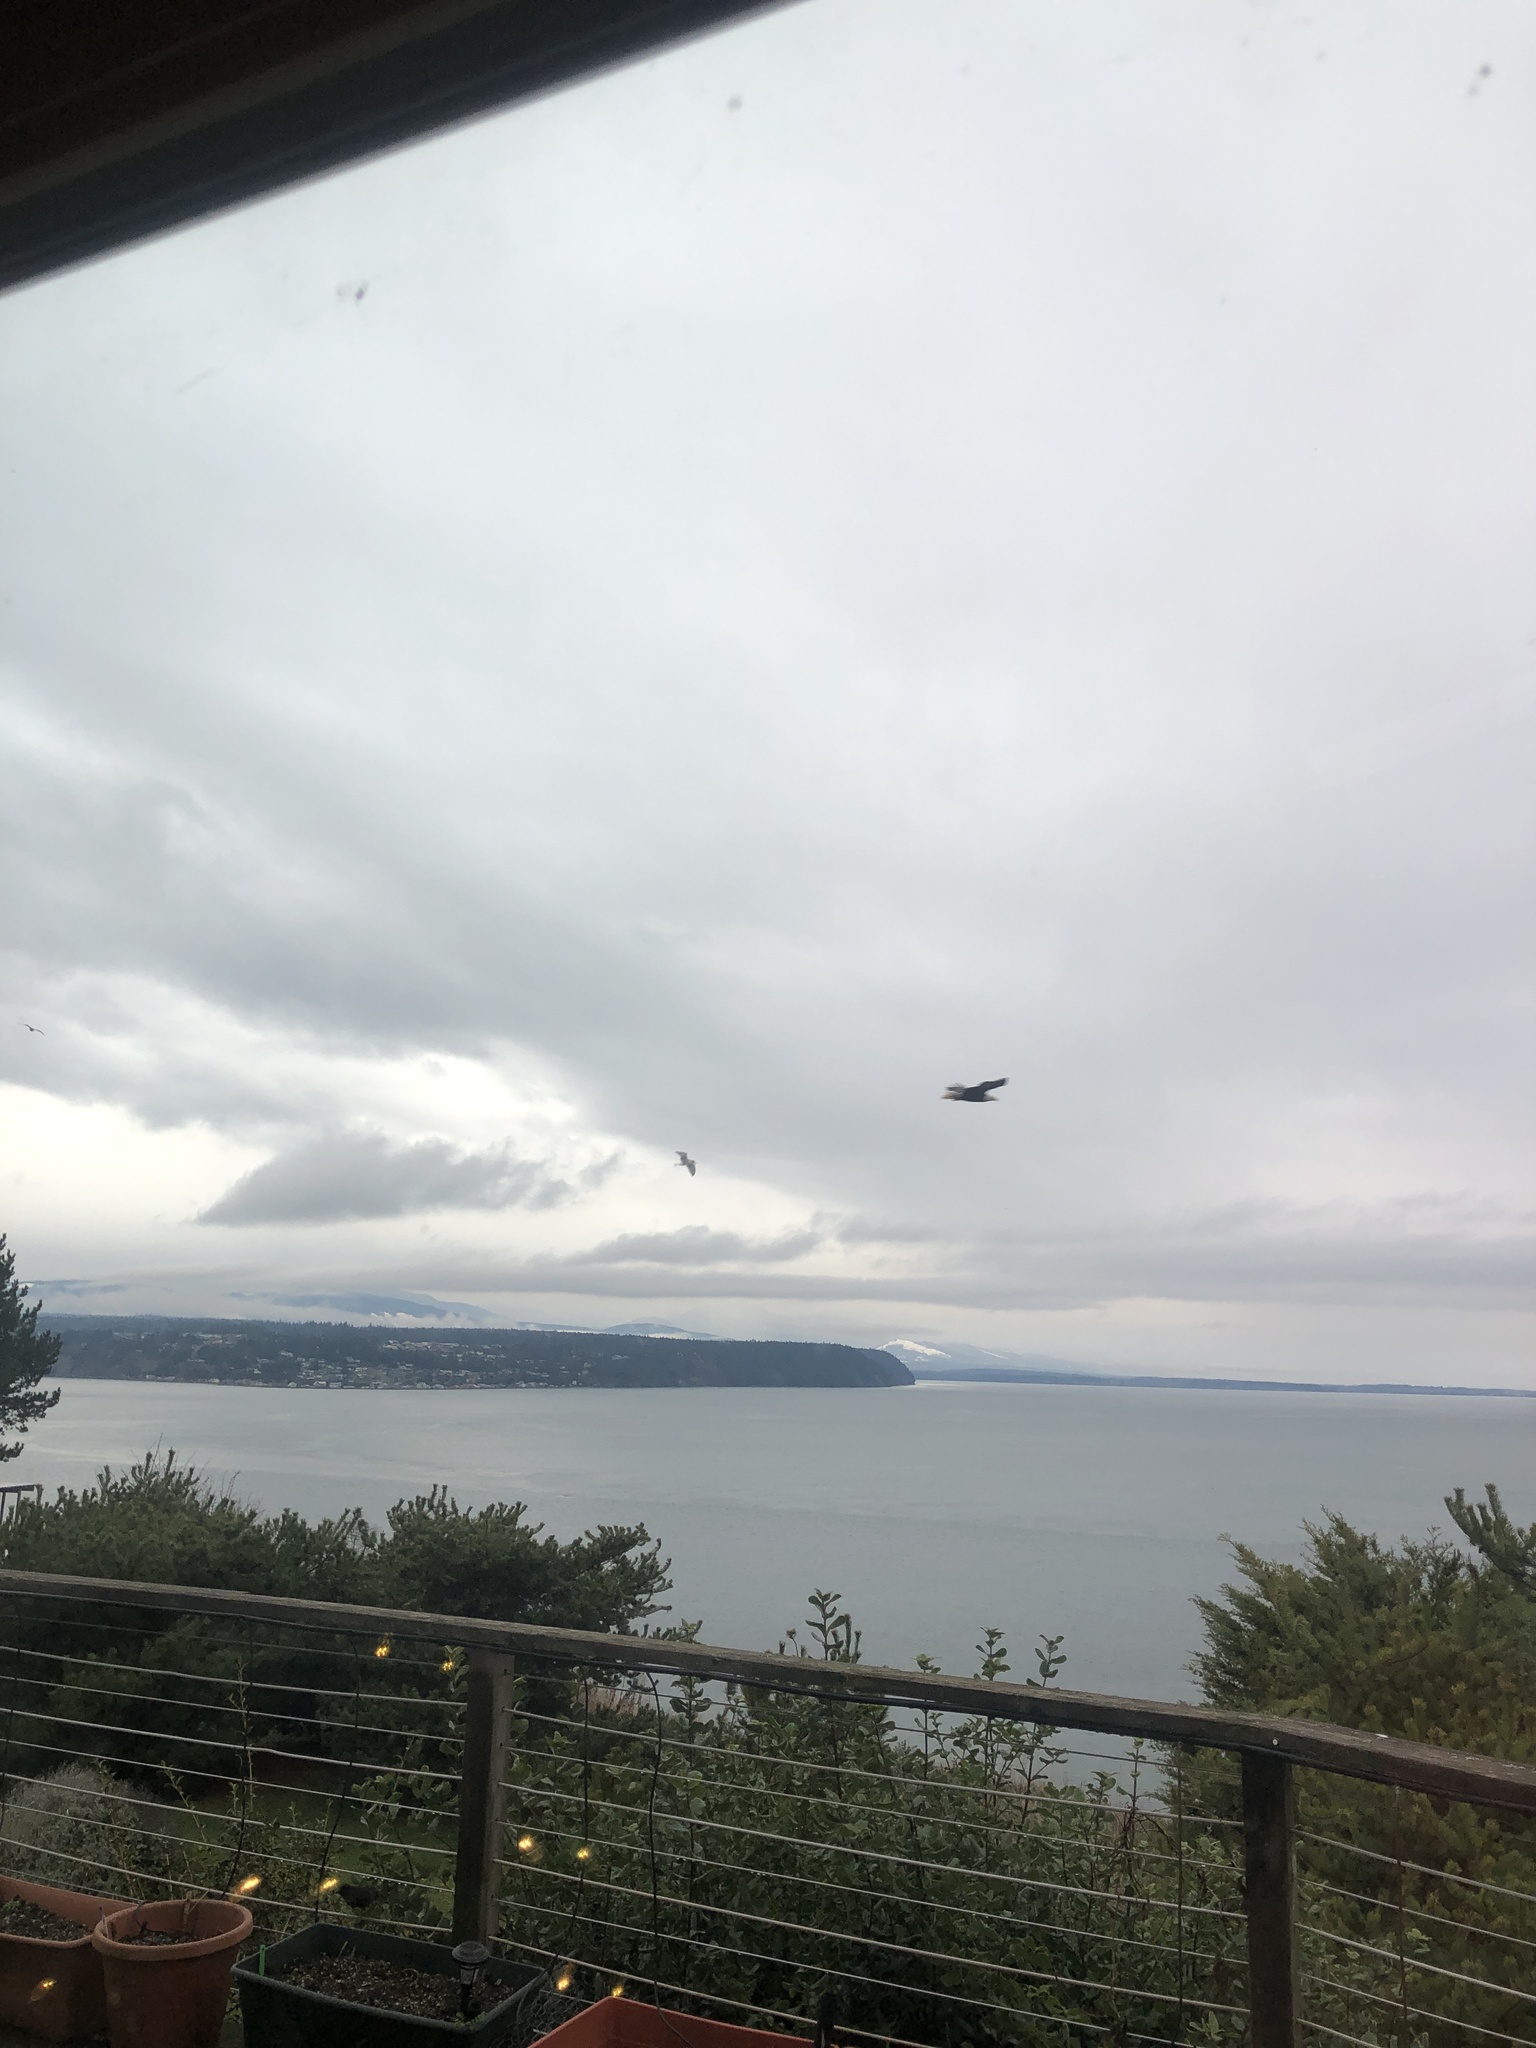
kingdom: Animalia
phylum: Chordata
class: Aves
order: Accipitriformes
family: Accipitridae
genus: Haliaeetus
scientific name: Haliaeetus leucocephalus
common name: Bald eagle
